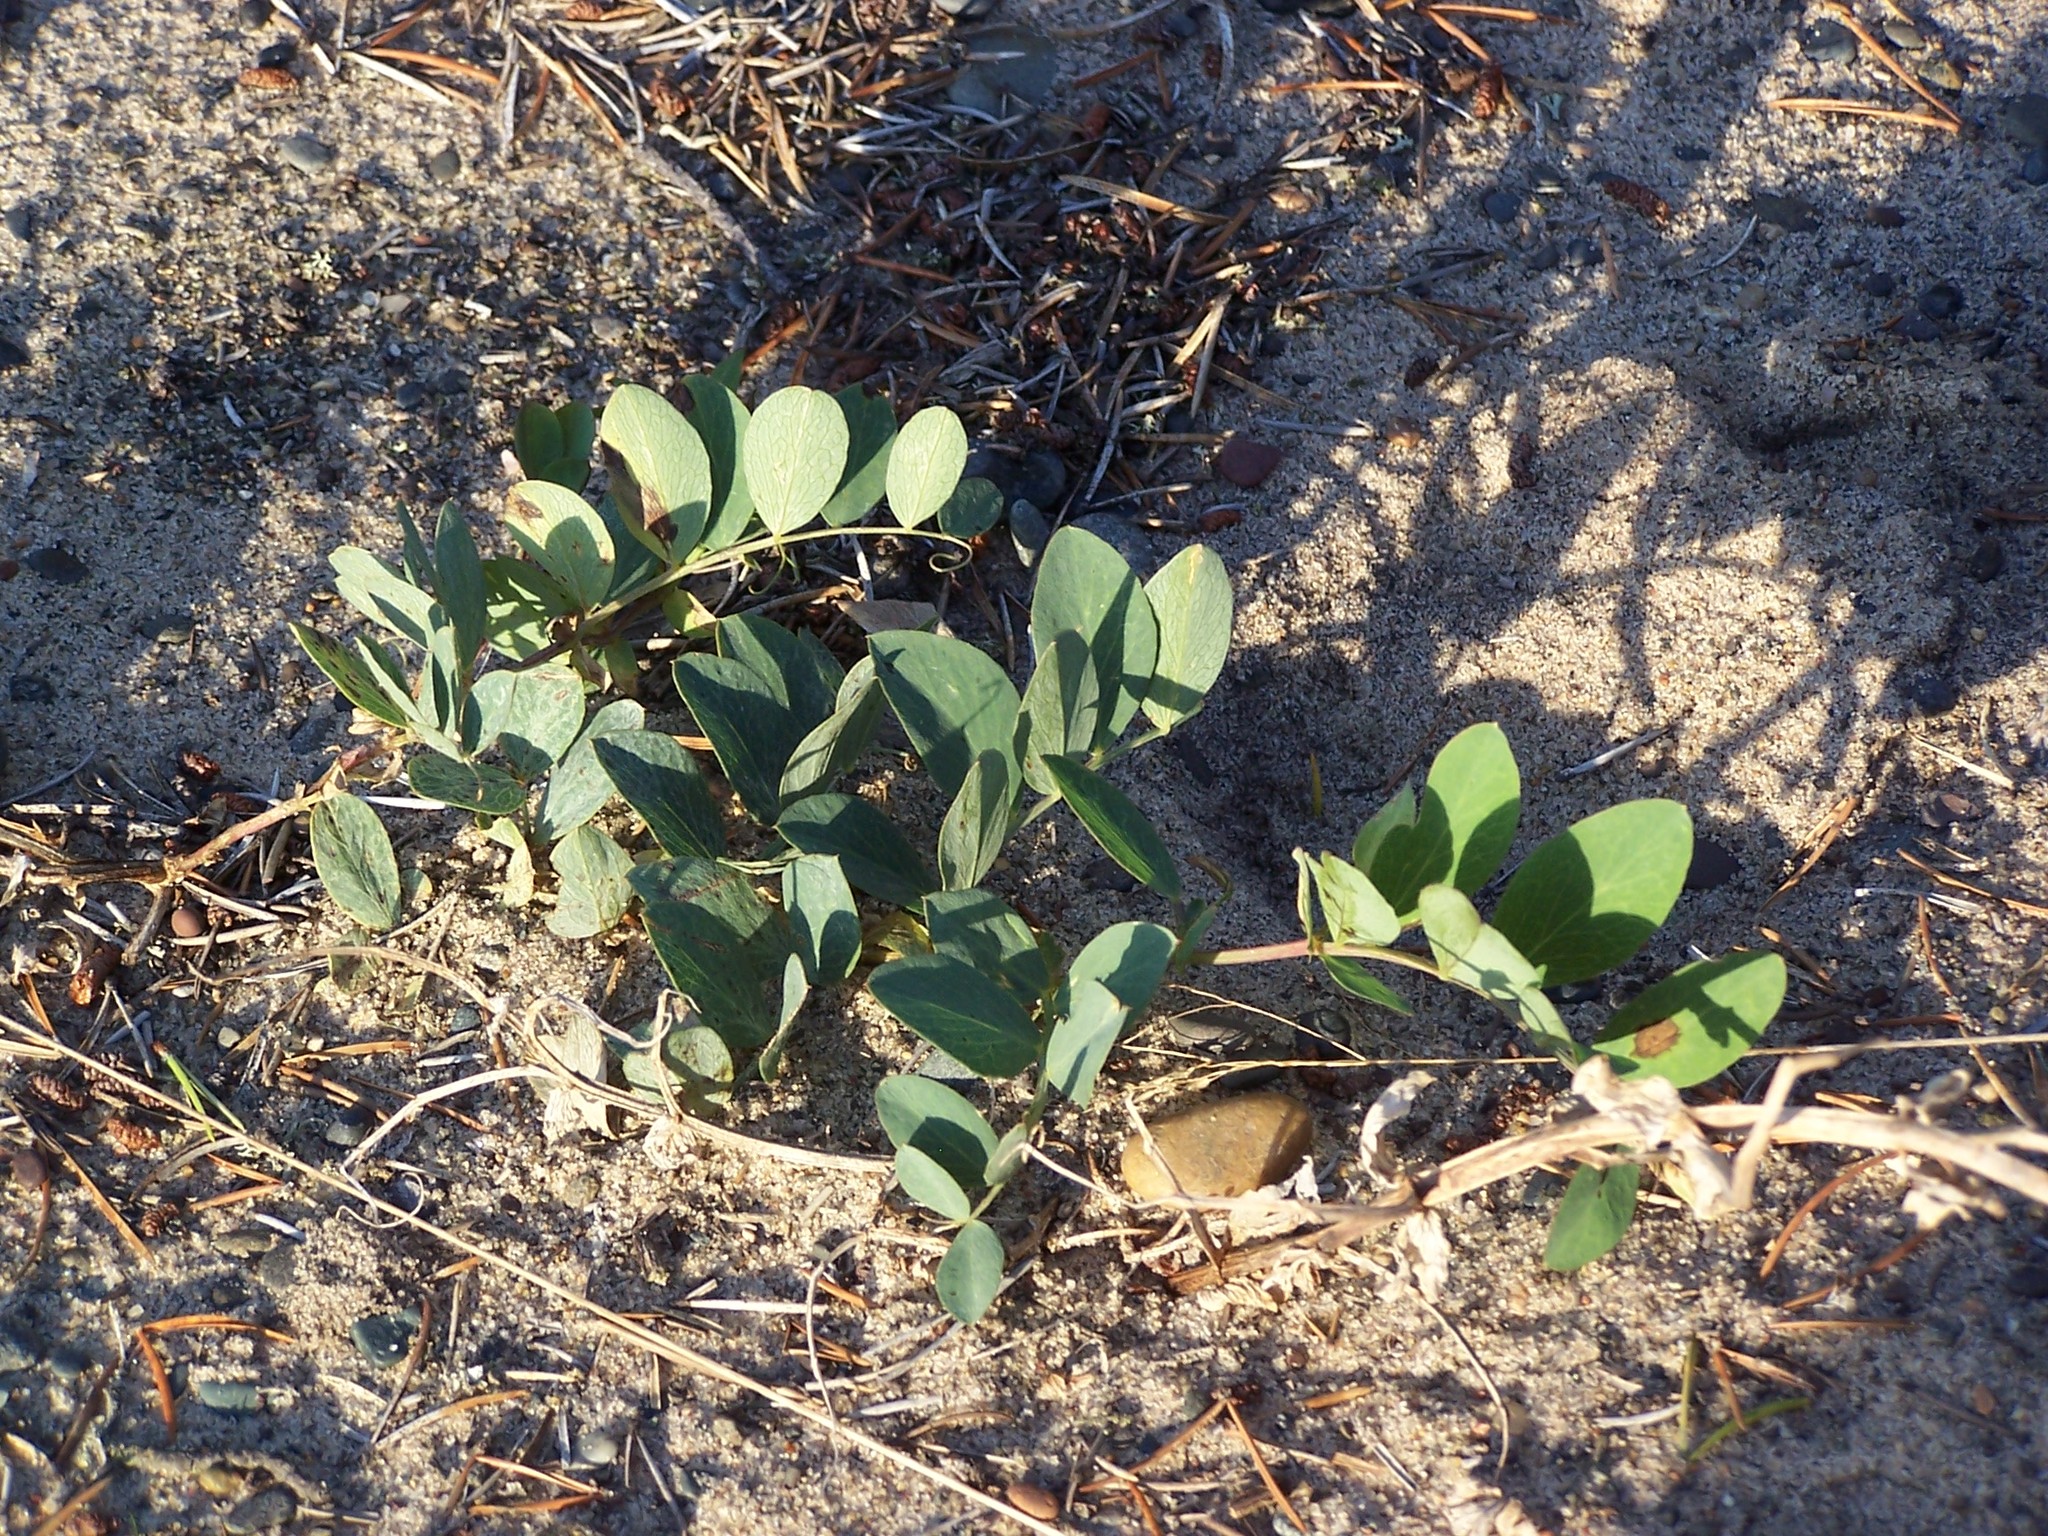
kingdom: Plantae
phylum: Tracheophyta
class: Magnoliopsida
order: Fabales
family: Fabaceae
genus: Lathyrus
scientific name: Lathyrus japonicus
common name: Sea pea
